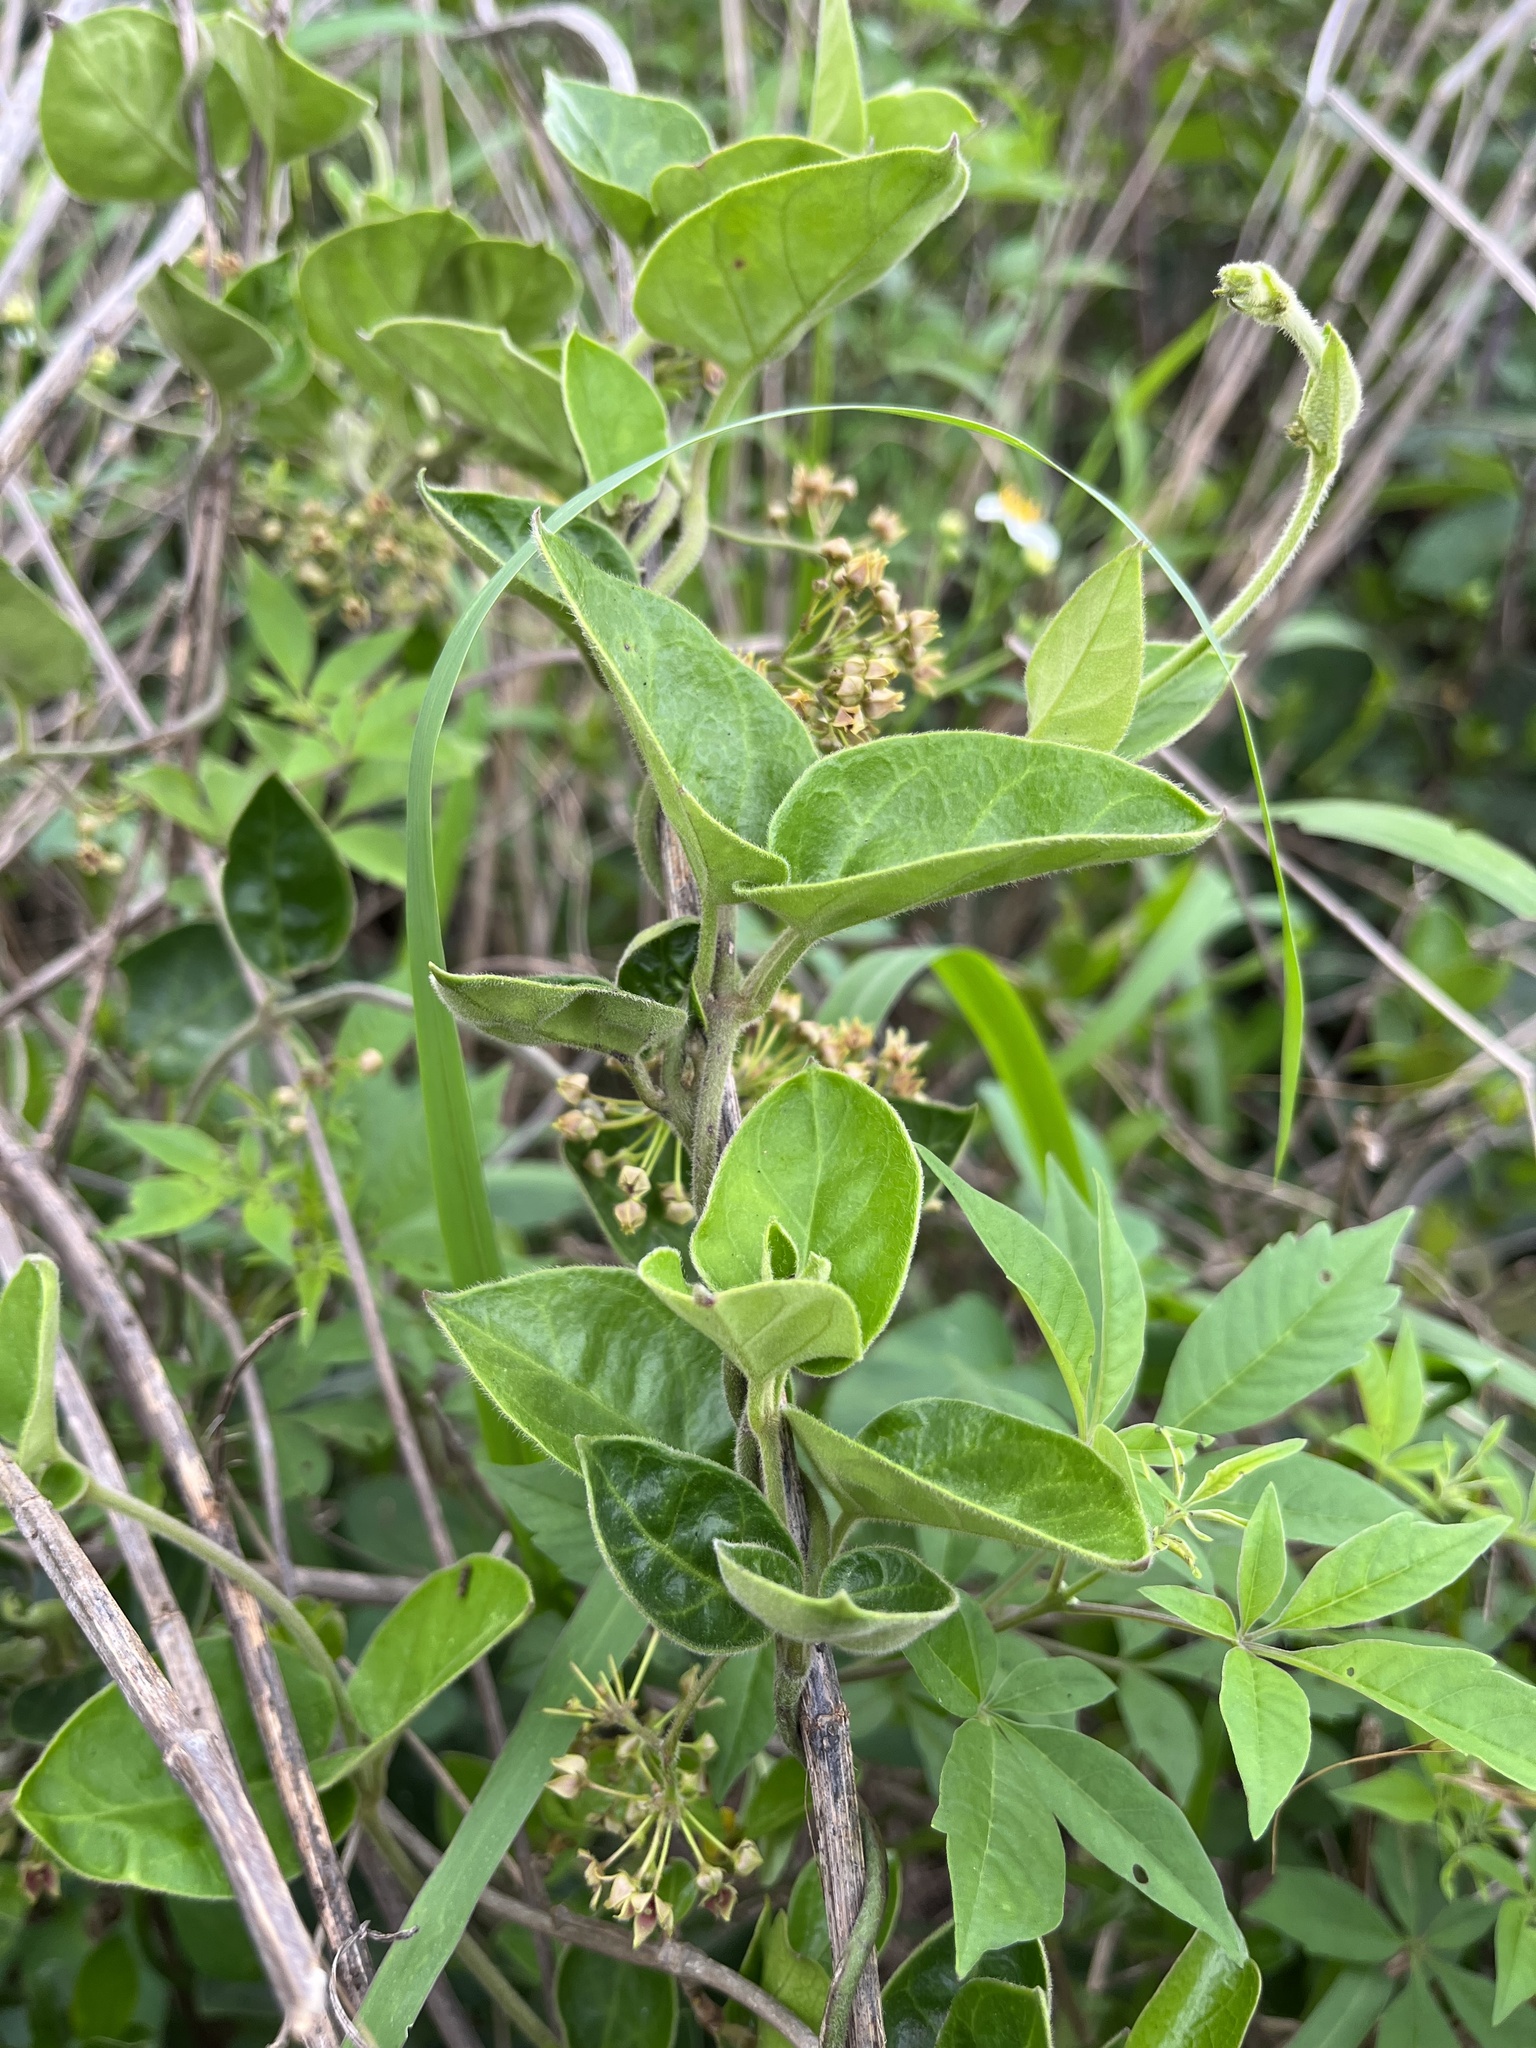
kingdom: Plantae
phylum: Tracheophyta
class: Magnoliopsida
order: Gentianales
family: Apocynaceae
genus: Vincetoxicum
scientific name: Vincetoxicum hirsutum
